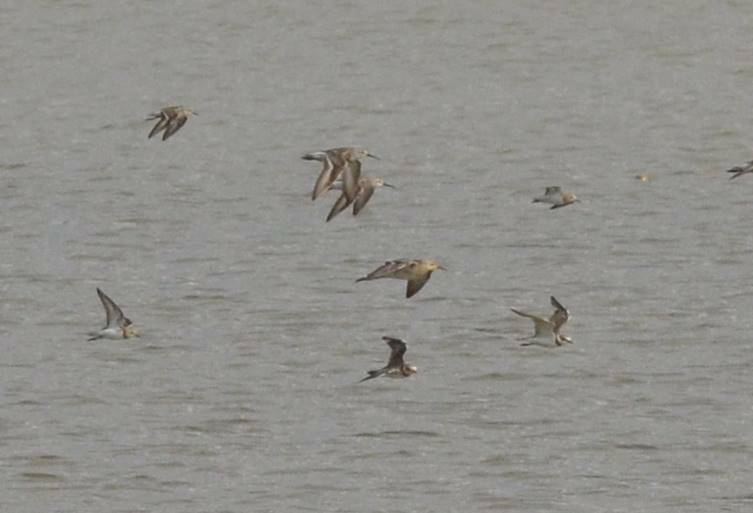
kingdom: Animalia
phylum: Chordata
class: Aves
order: Charadriiformes
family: Scolopacidae
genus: Calidris
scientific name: Calidris pugnax
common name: Ruff
